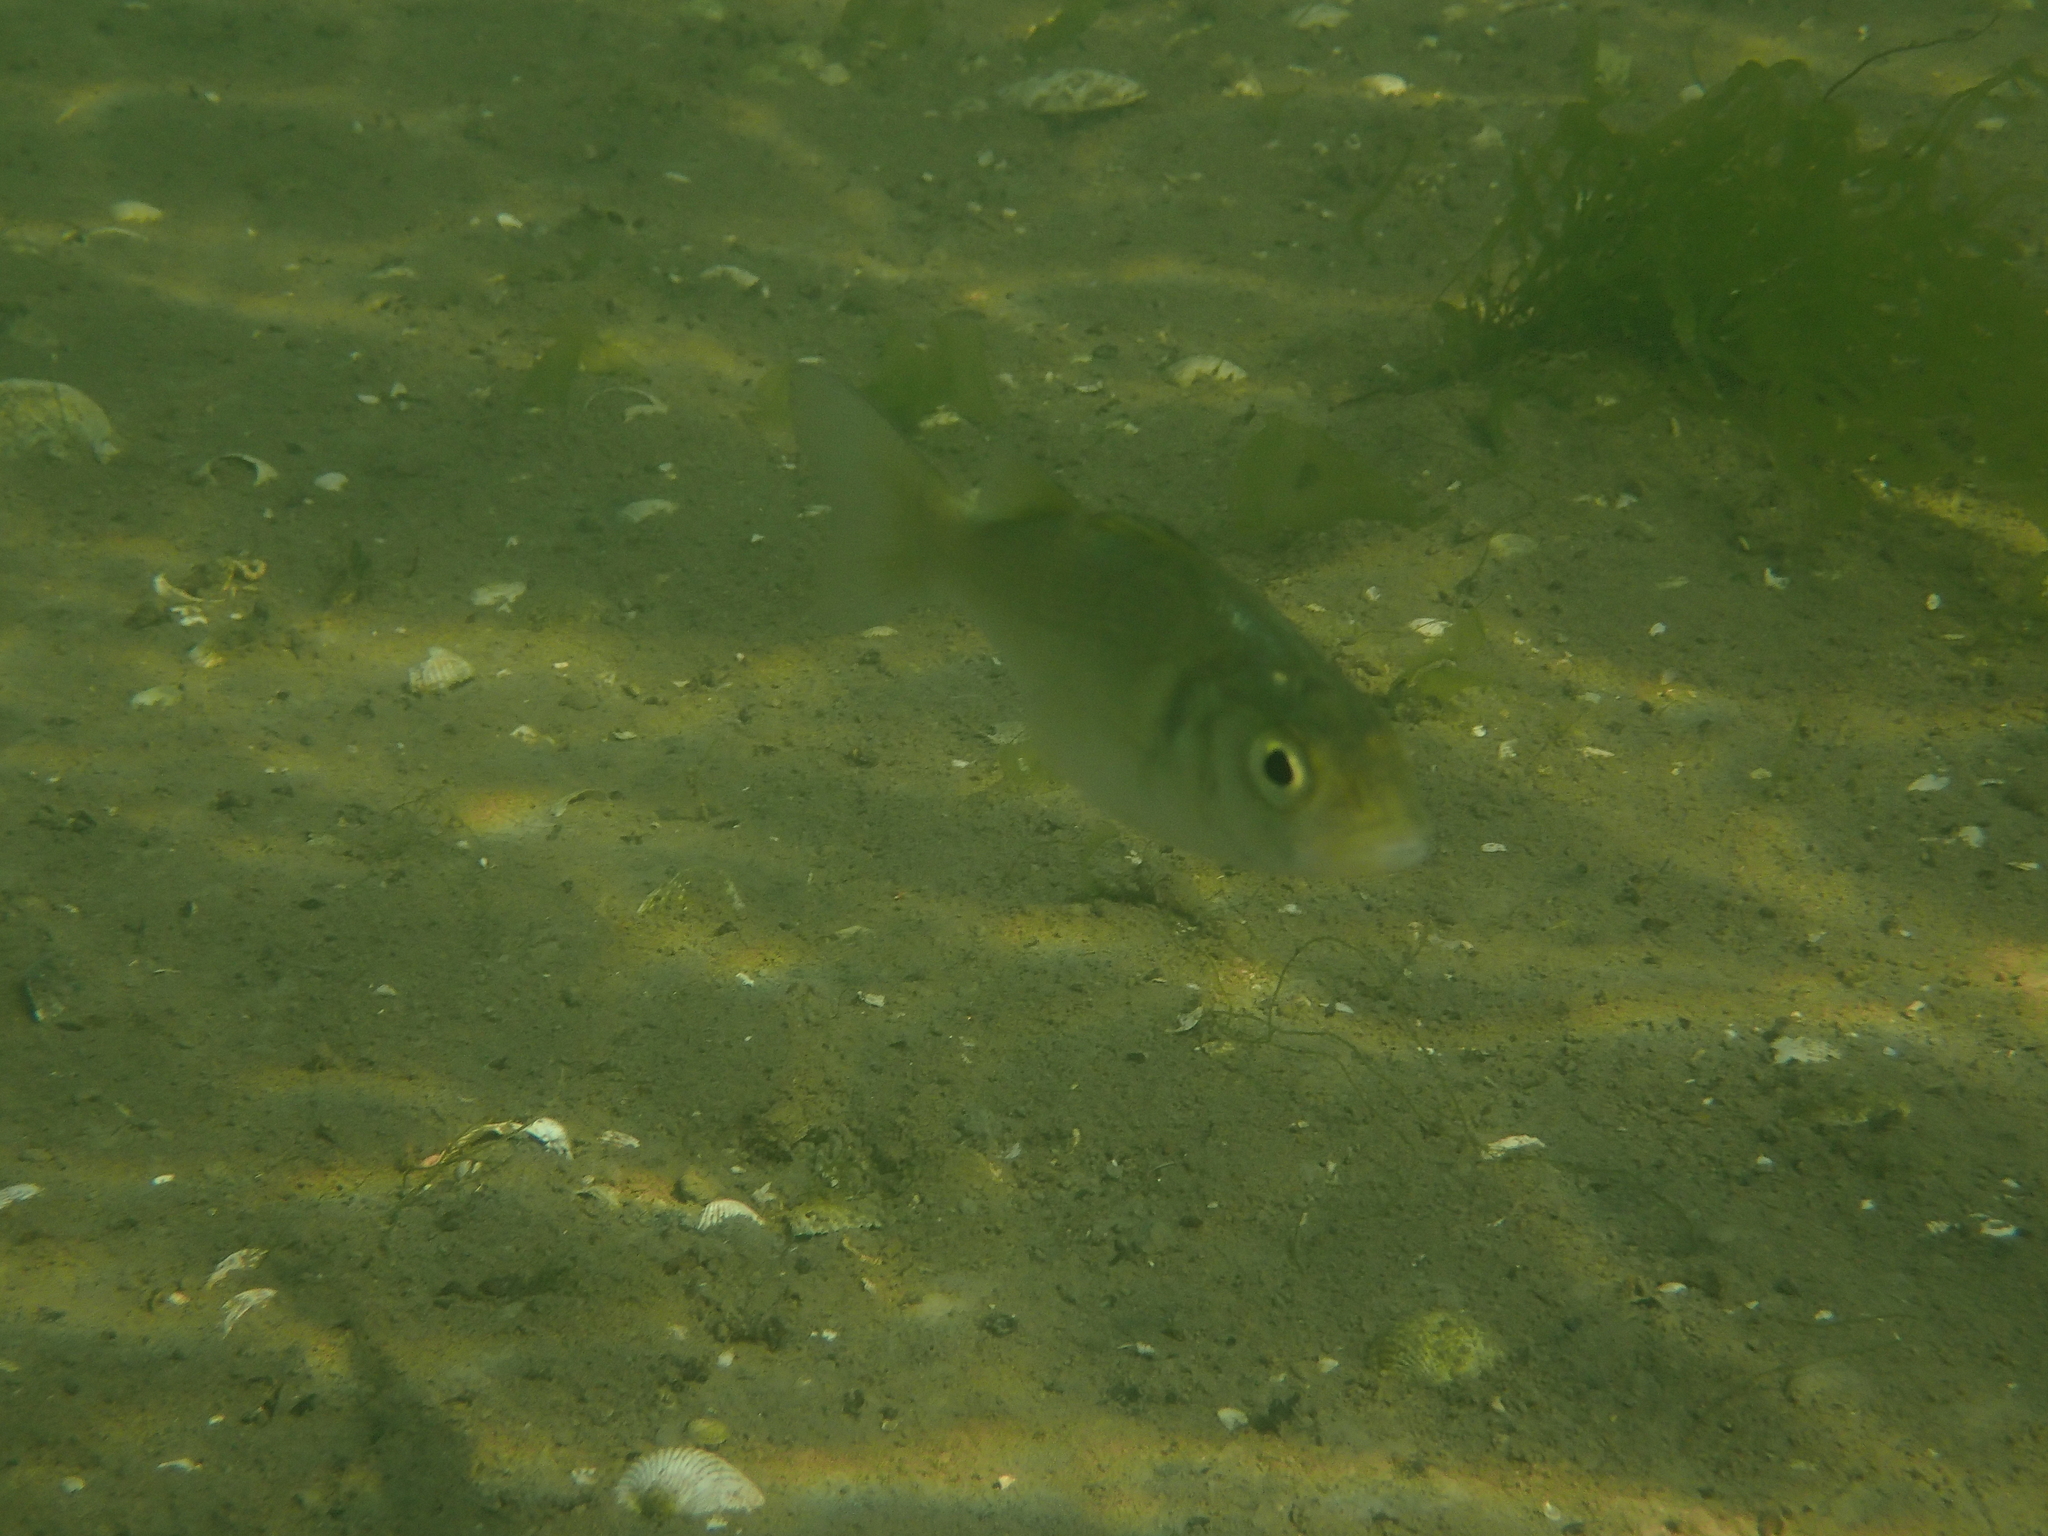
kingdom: Animalia
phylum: Chordata
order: Perciformes
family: Moronidae
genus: Dicentrarchus
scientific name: Dicentrarchus labrax
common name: European seabass
